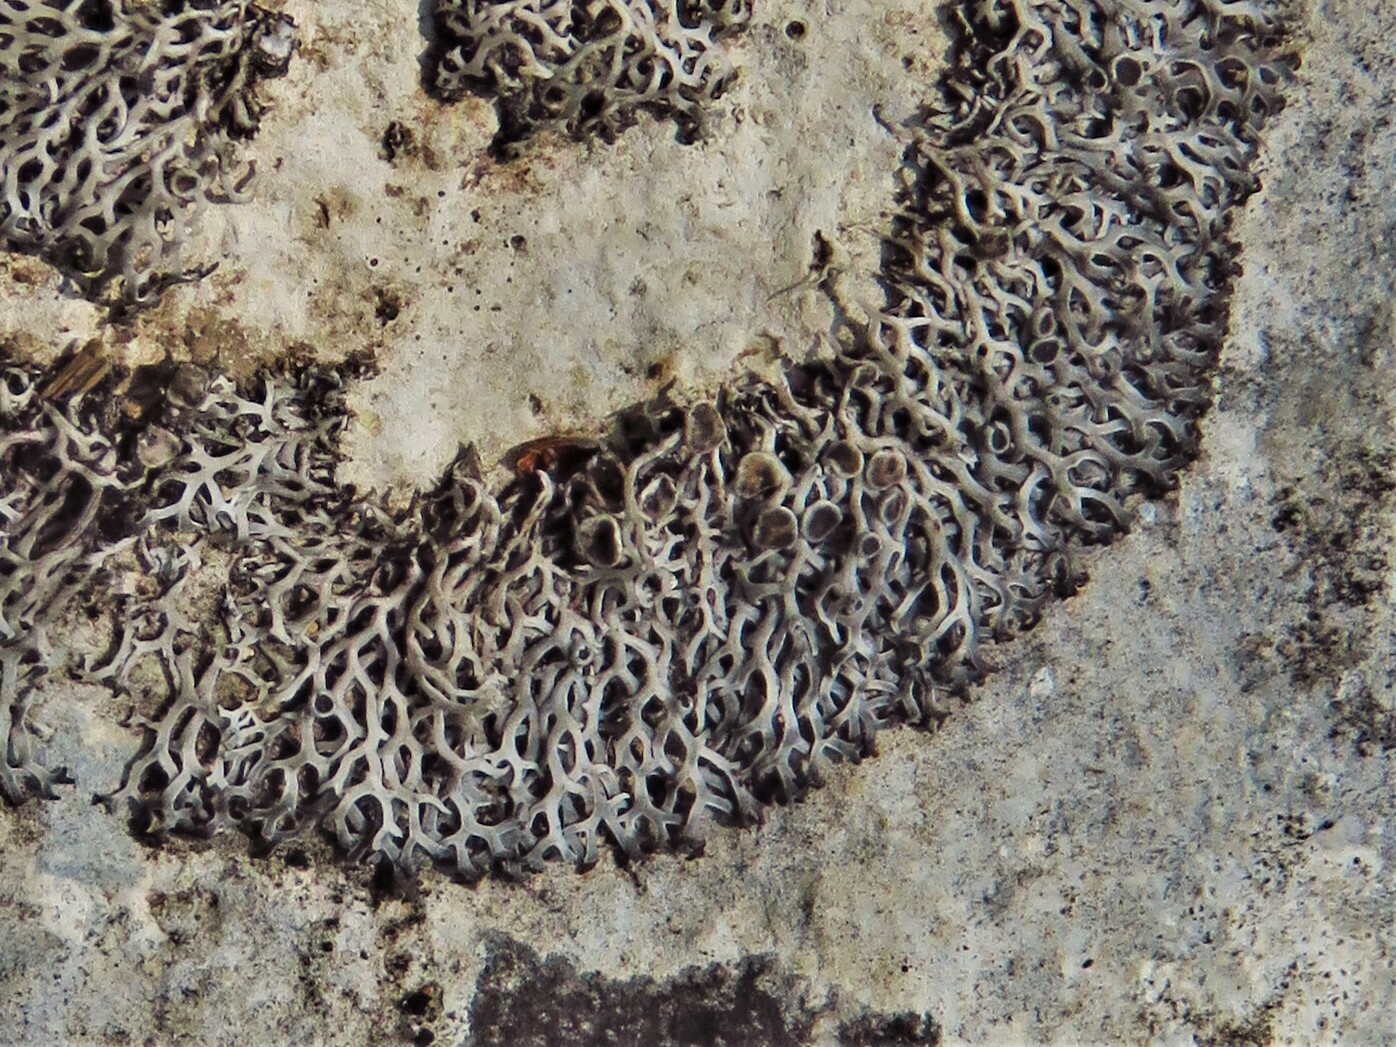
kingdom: Fungi
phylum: Ascomycota
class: Lecanoromycetes
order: Teloschistales
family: Leprocaulaceae
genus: Speerschneidera
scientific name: Speerschneidera euploca
